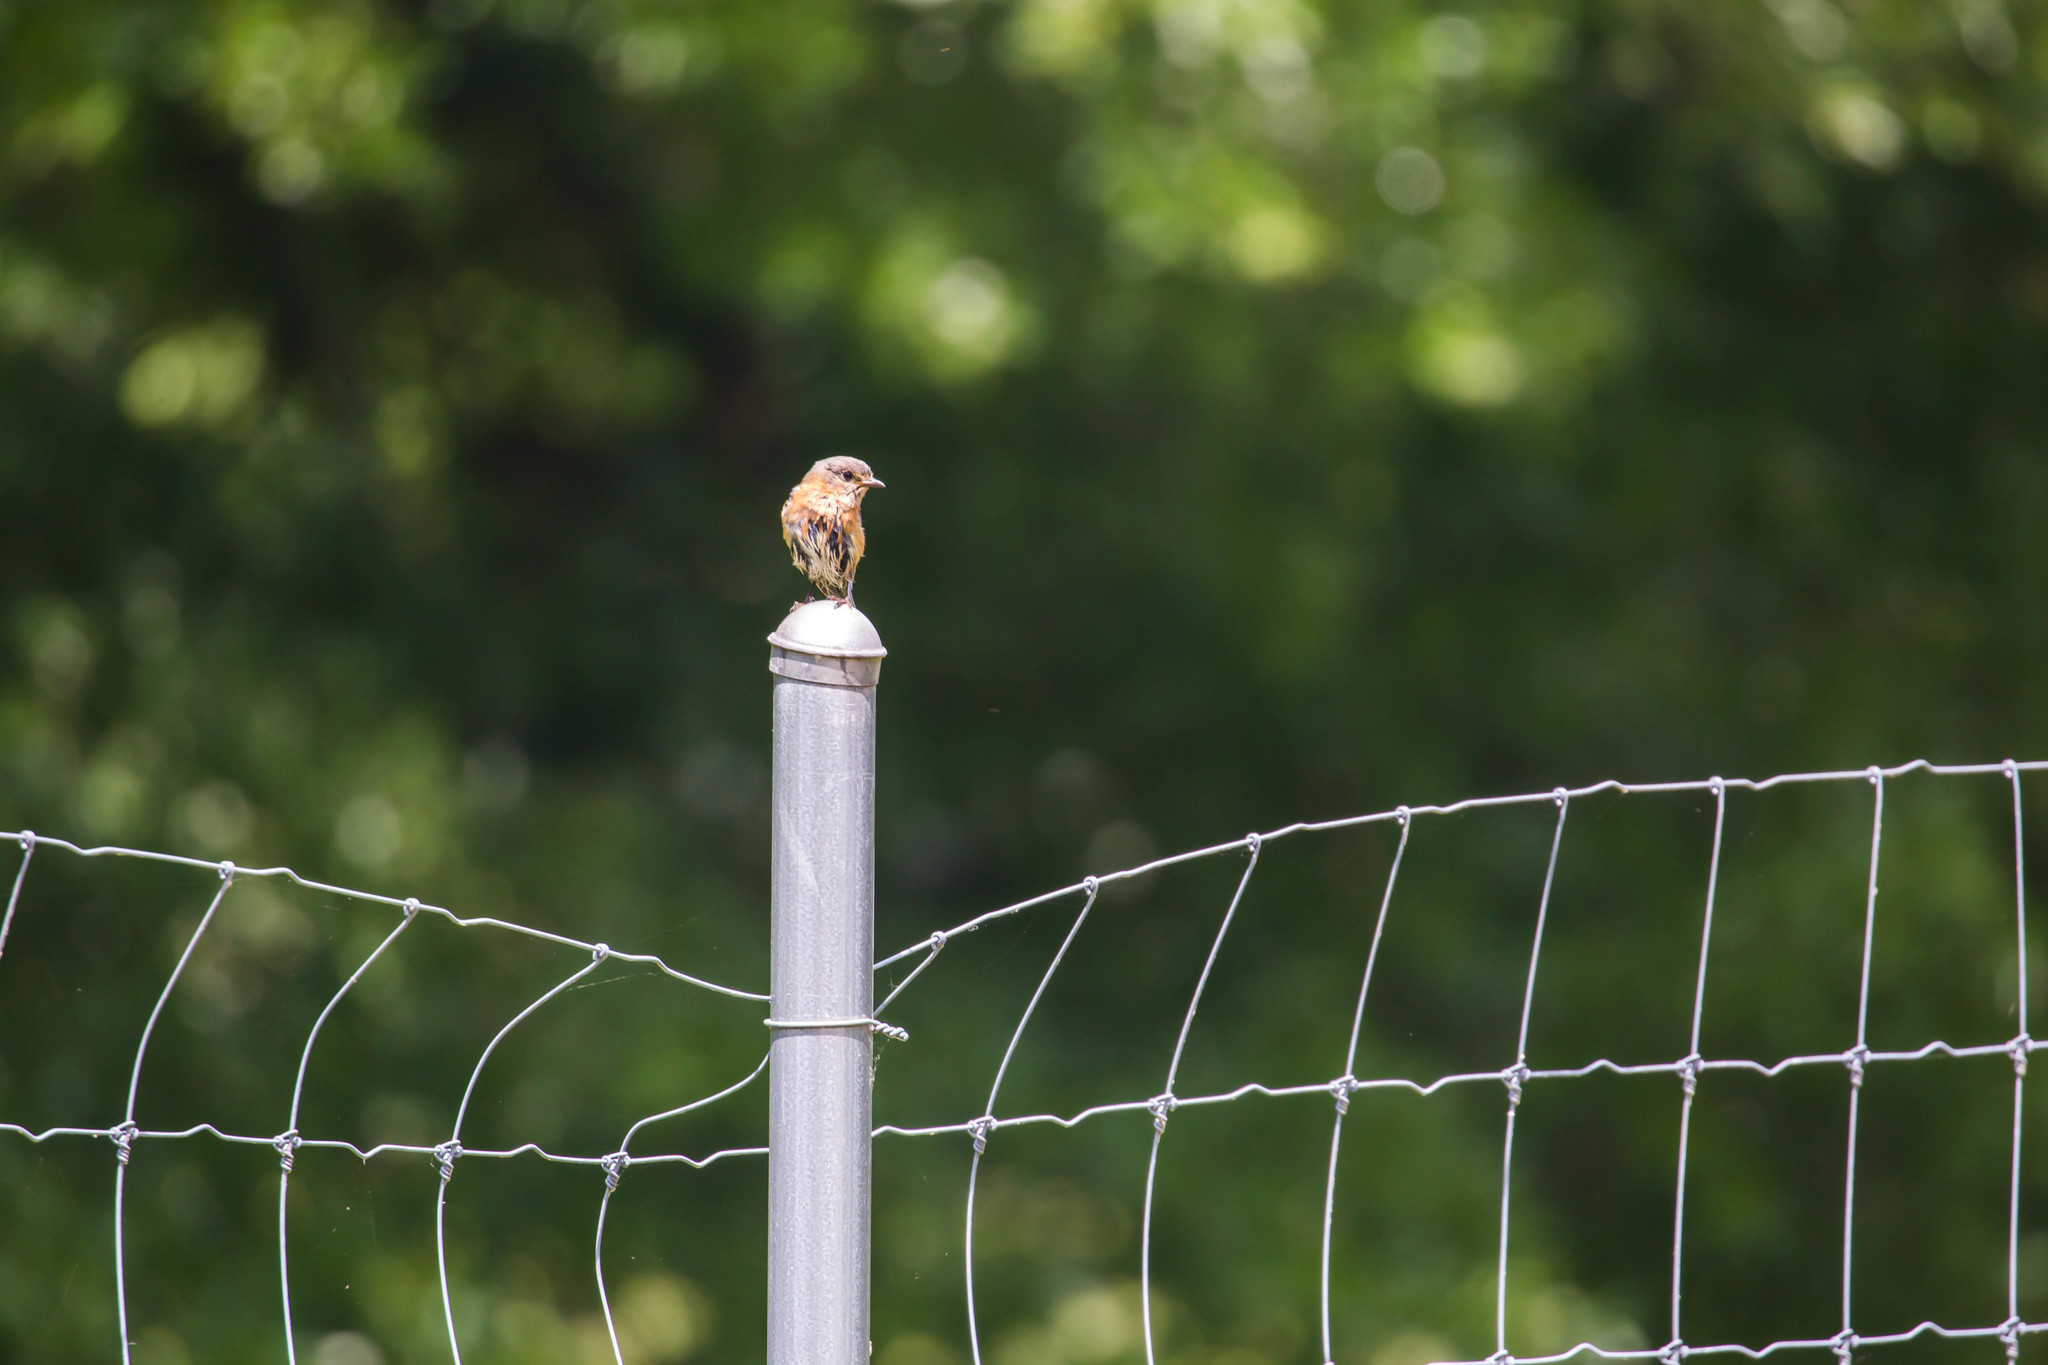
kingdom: Animalia
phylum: Chordata
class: Aves
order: Passeriformes
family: Turdidae
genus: Sialia
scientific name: Sialia sialis
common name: Eastern bluebird
